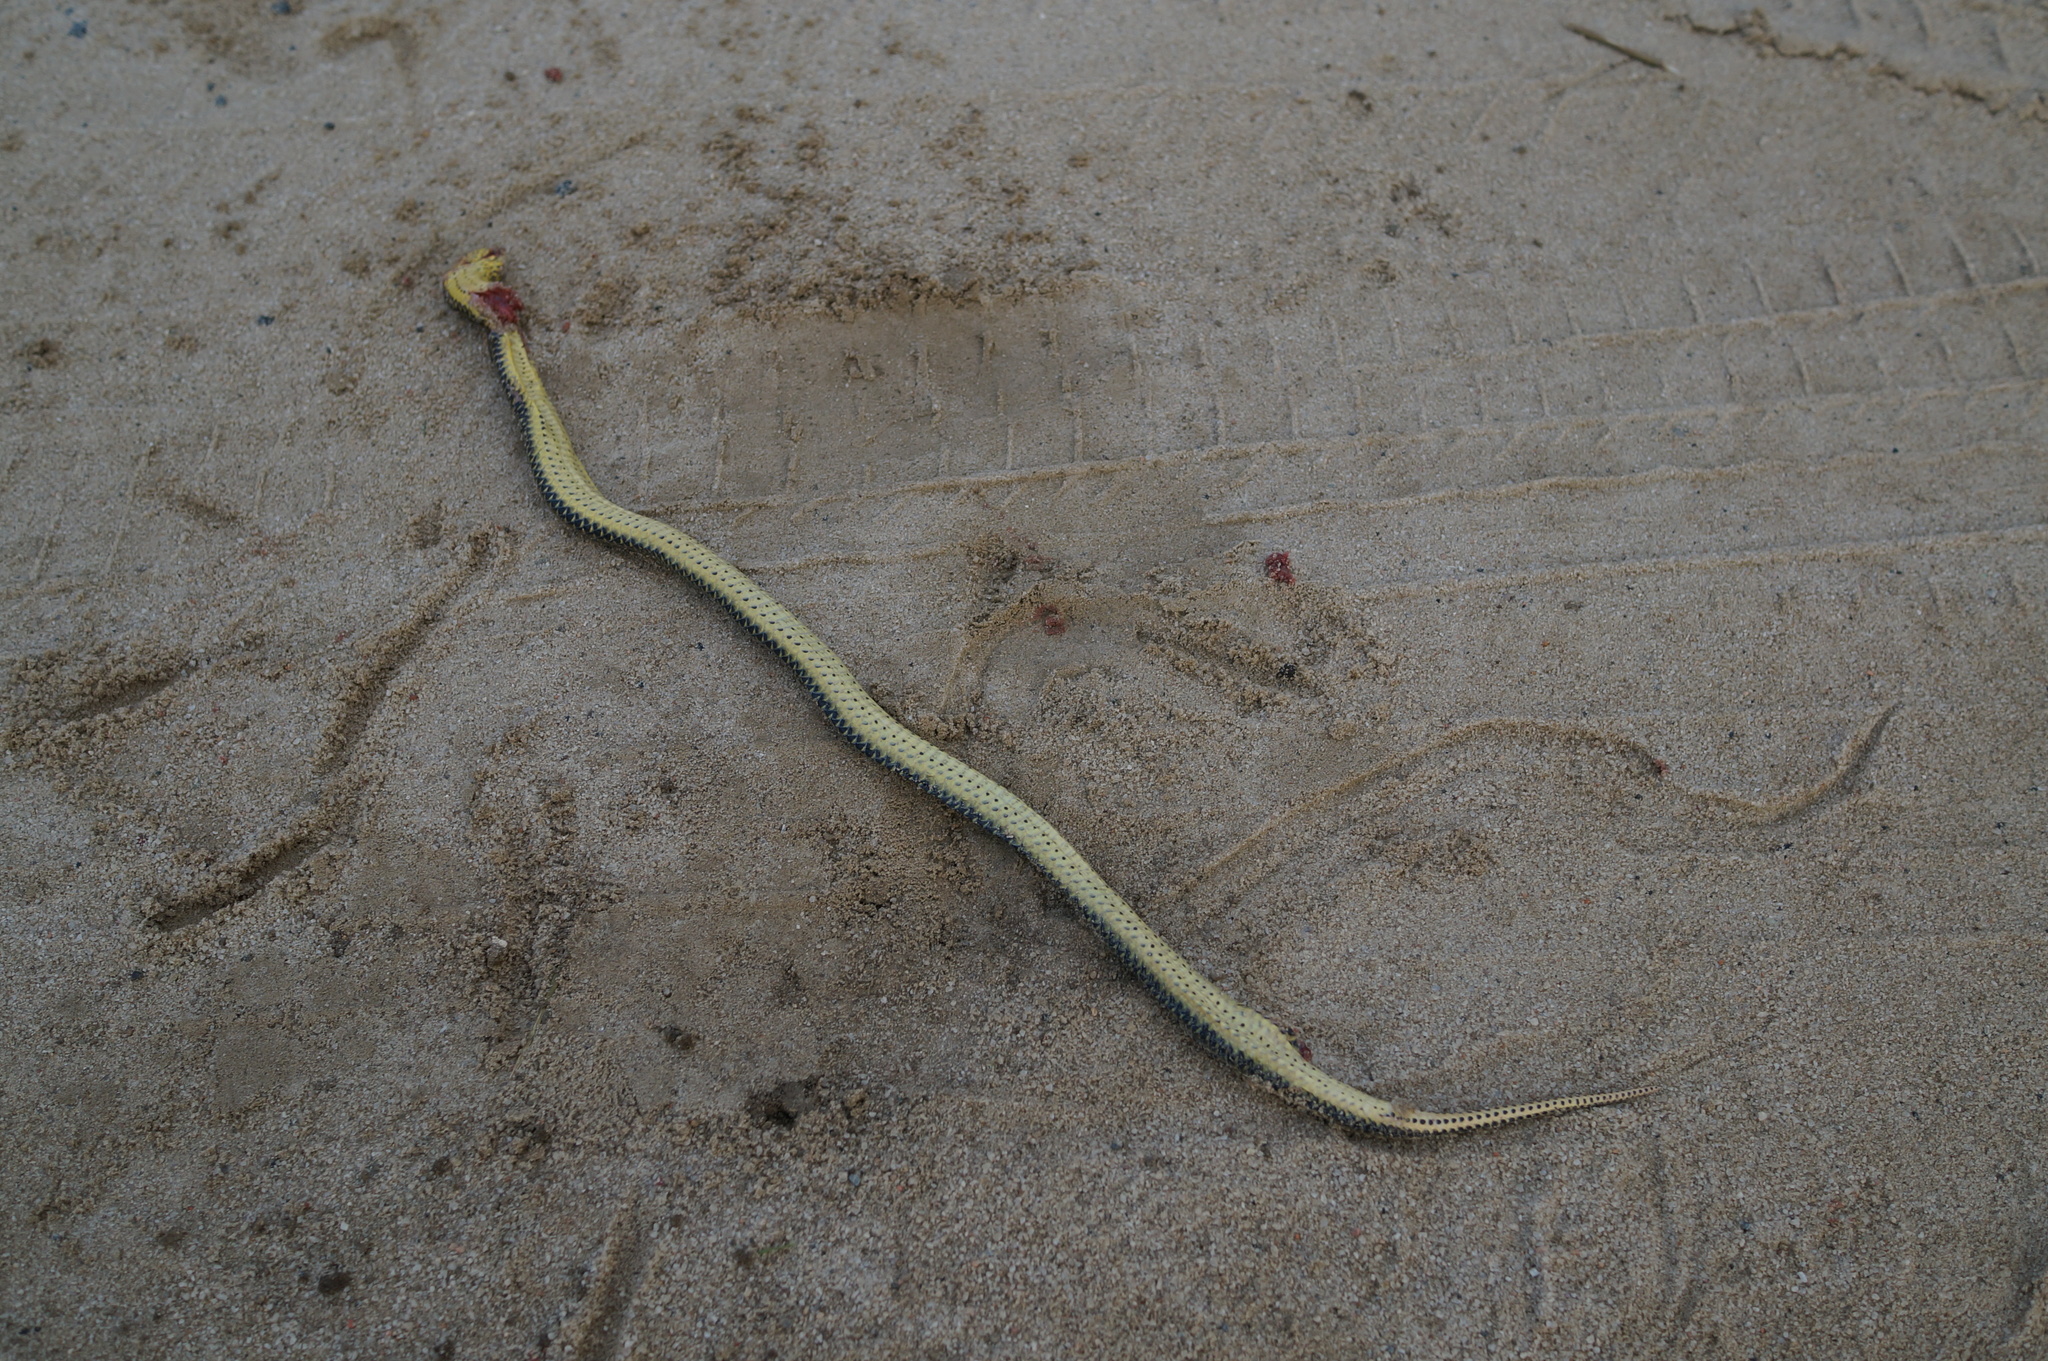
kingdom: Animalia
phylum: Chordata
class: Squamata
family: Colubridae
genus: Pseudoeryx
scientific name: Pseudoeryx plicatilis
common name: South american pond snake
